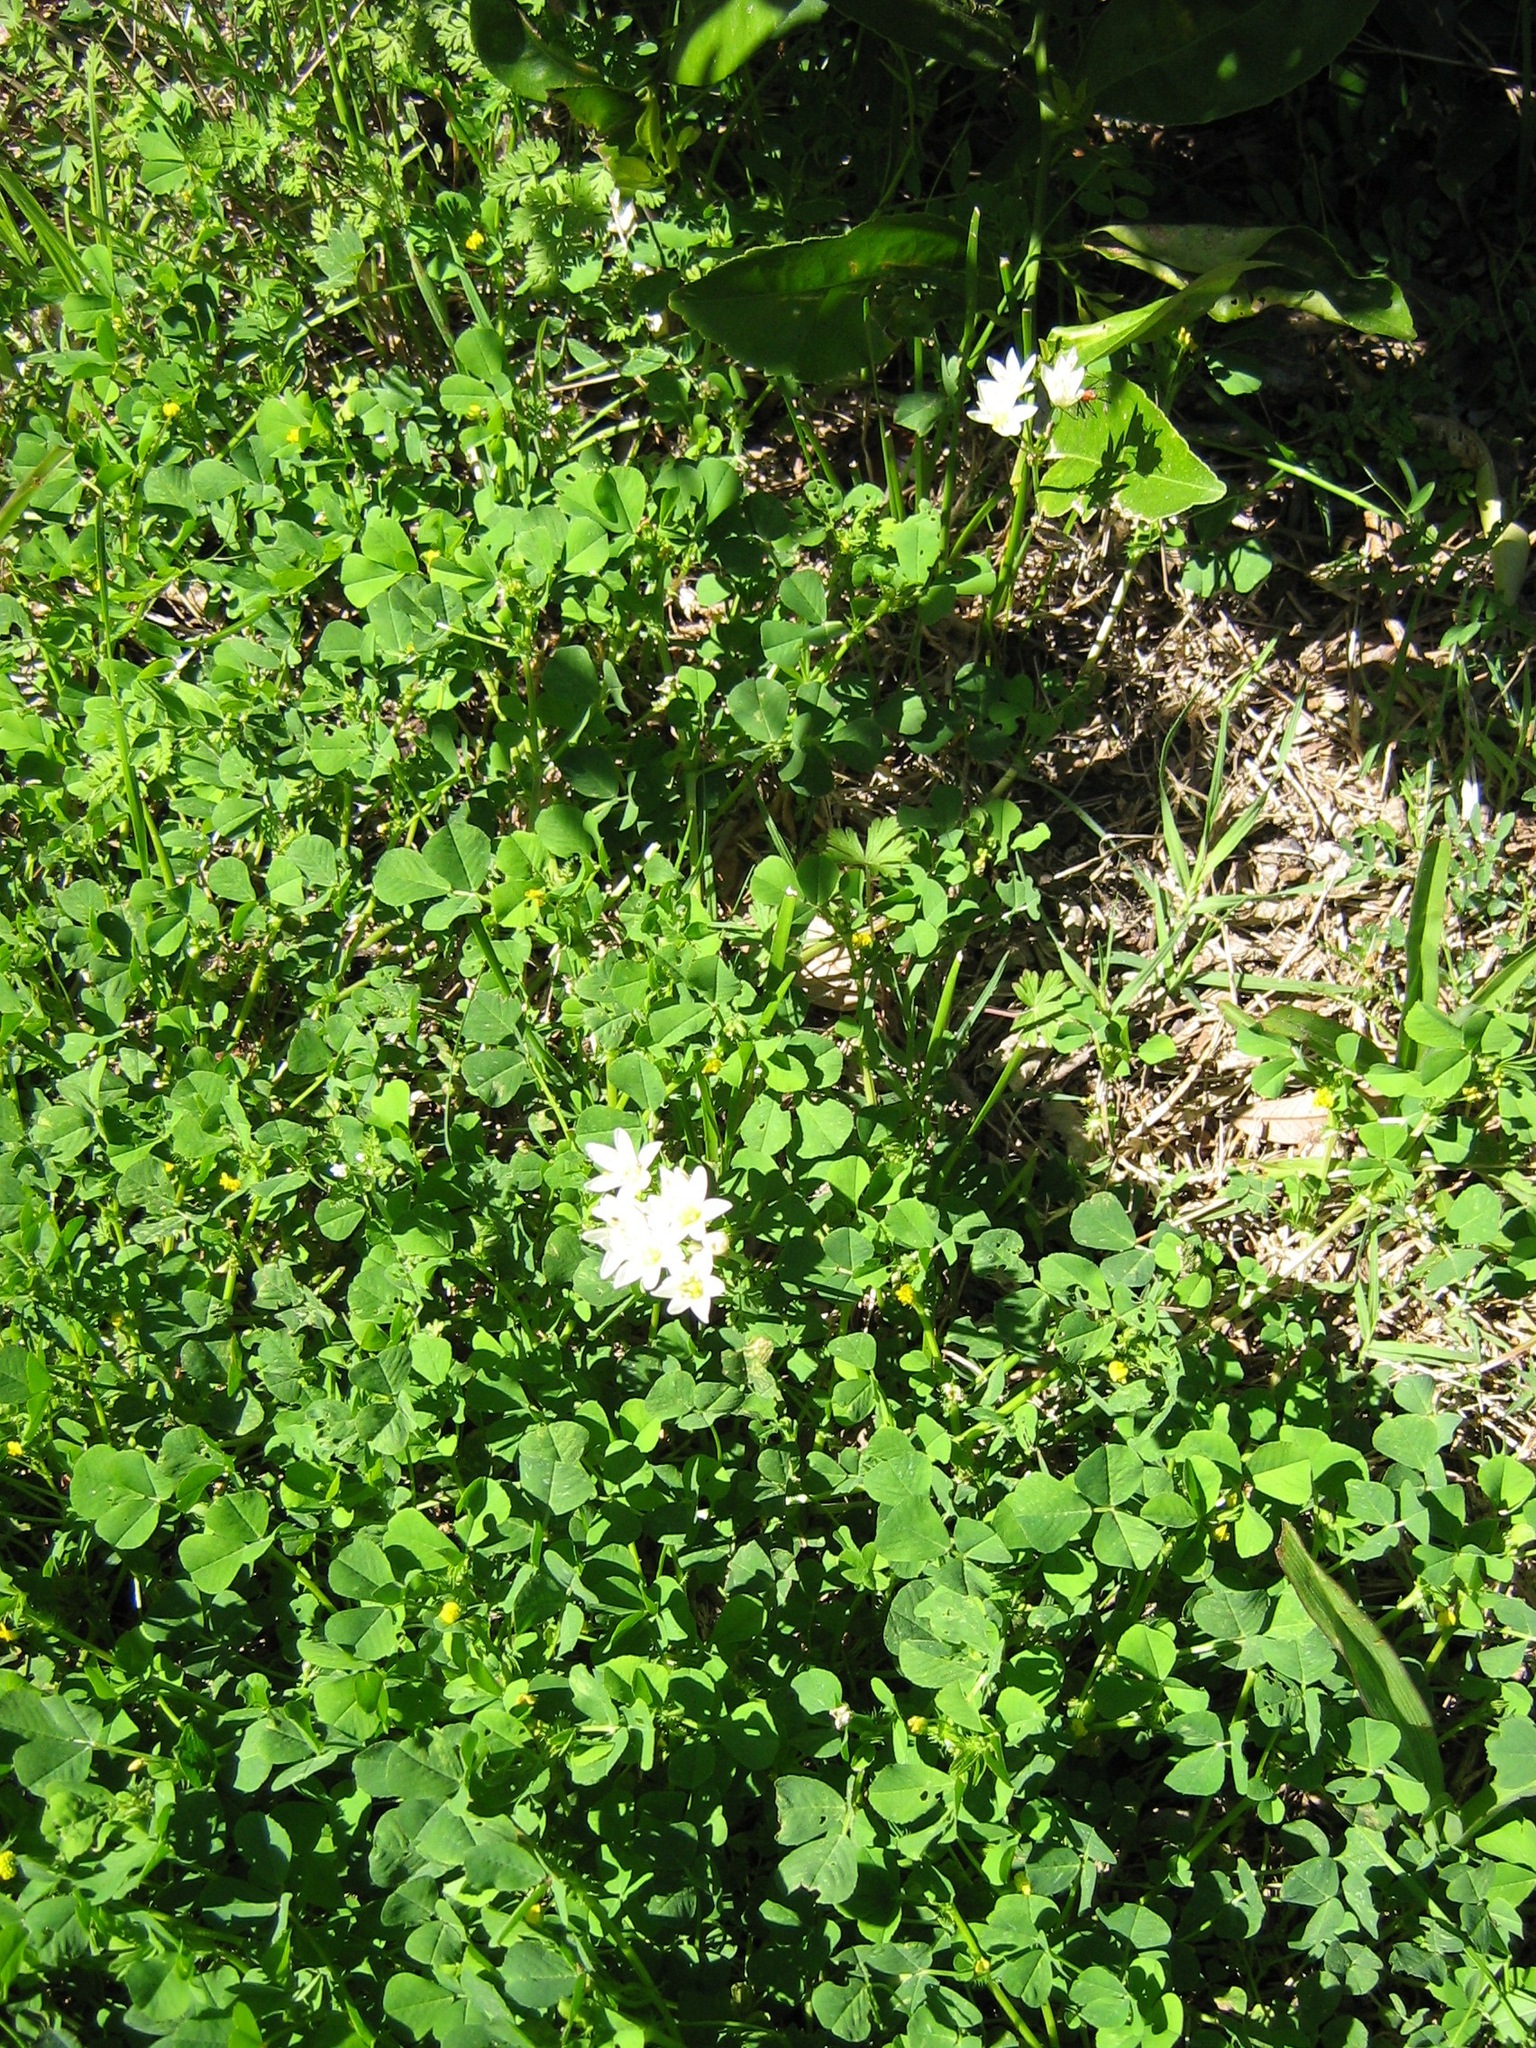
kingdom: Plantae
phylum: Tracheophyta
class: Liliopsida
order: Asparagales
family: Amaryllidaceae
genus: Nothoscordum
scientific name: Nothoscordum bivalve
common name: Crow-poison
